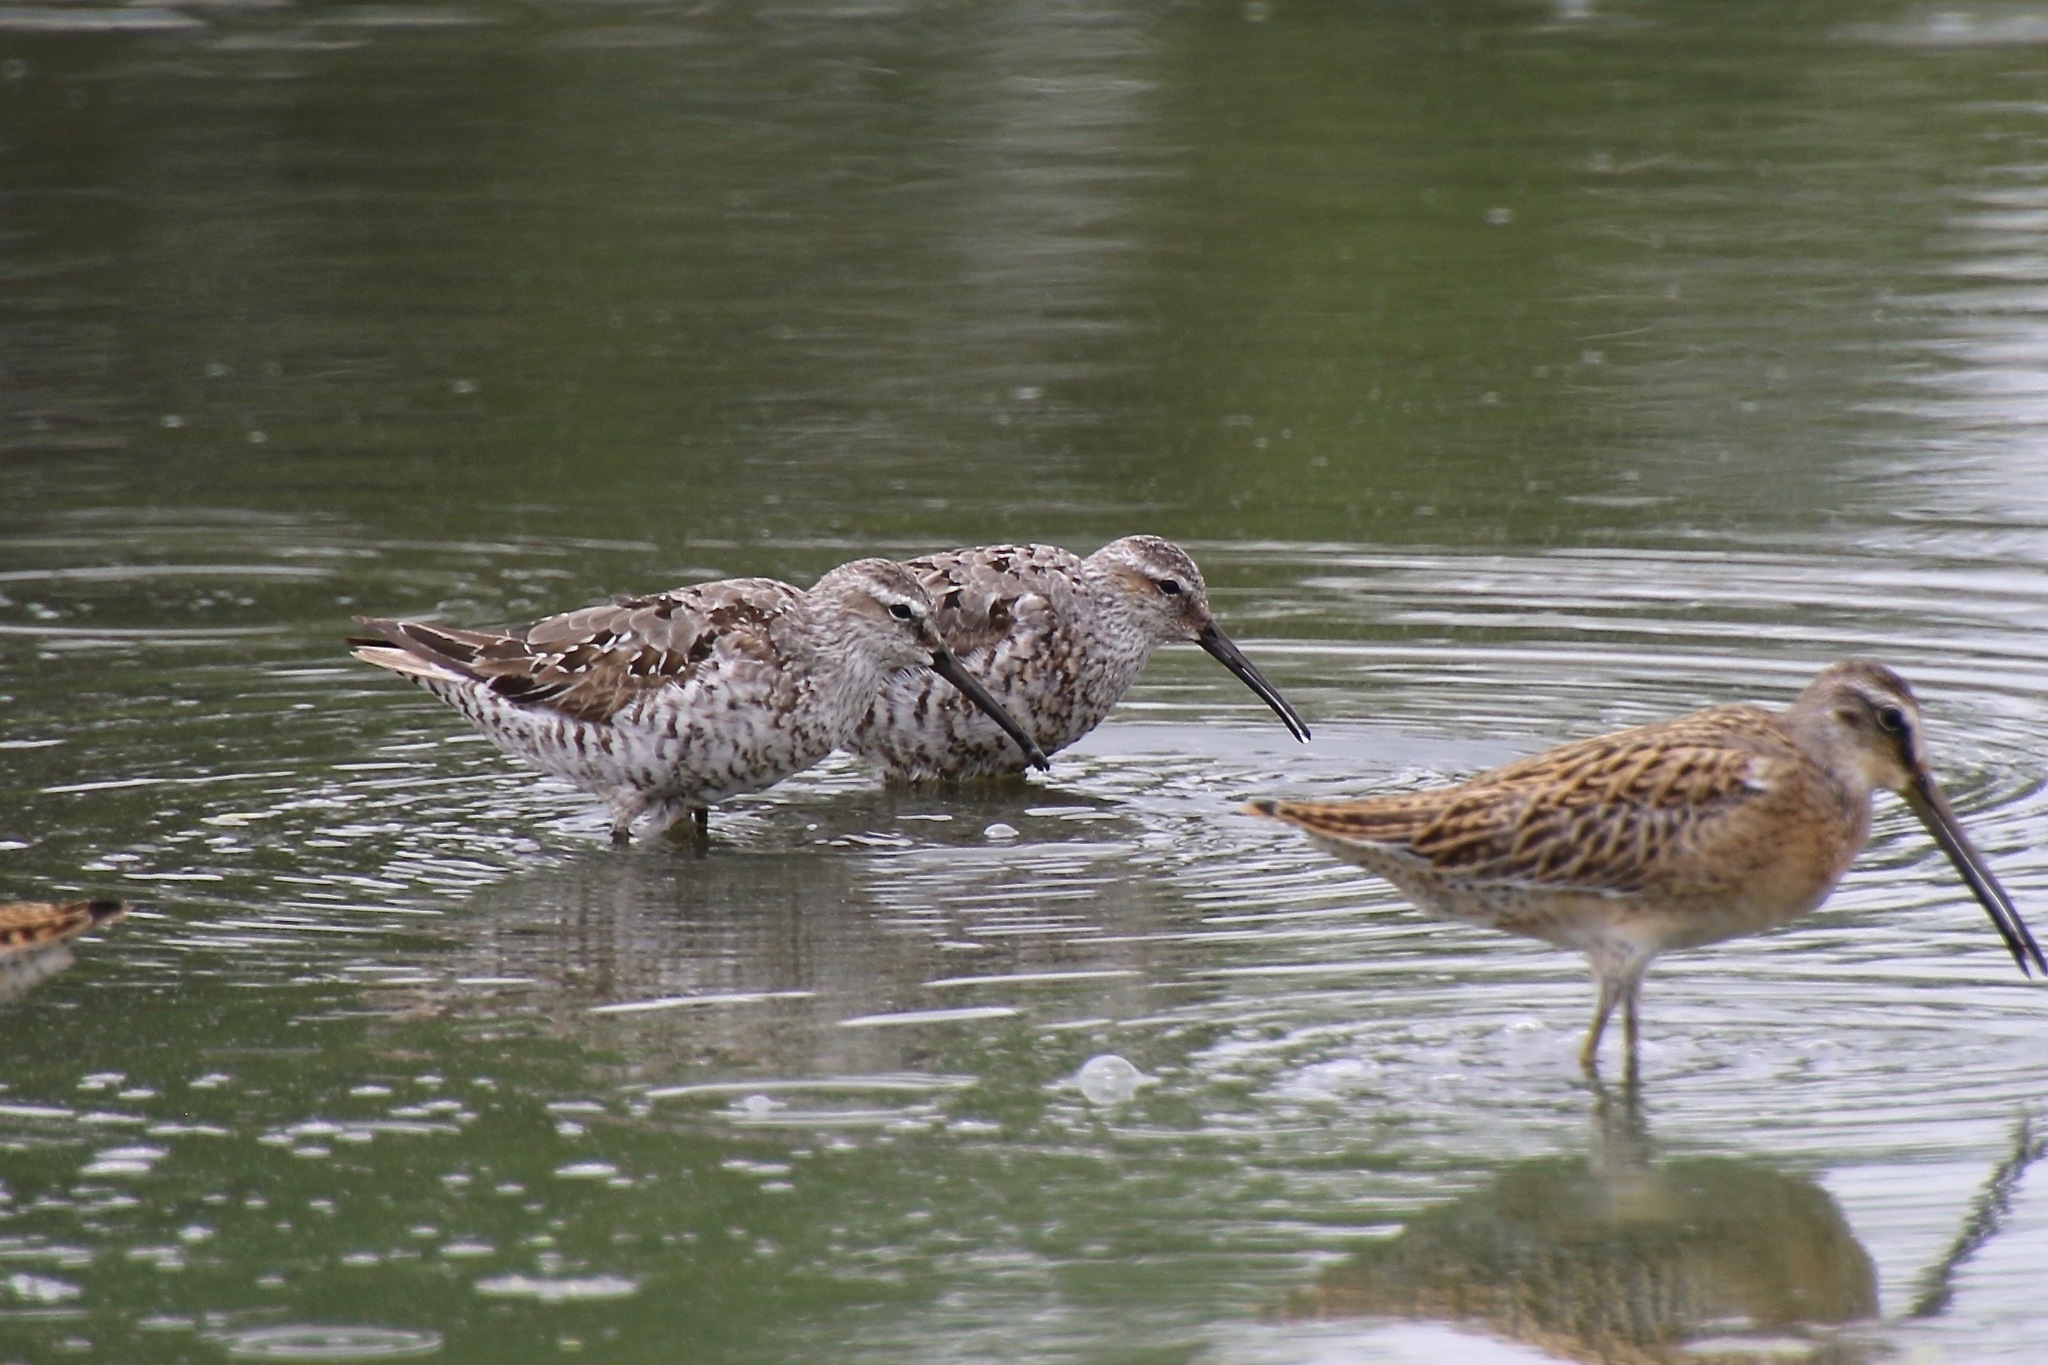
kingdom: Animalia
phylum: Chordata
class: Aves
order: Charadriiformes
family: Scolopacidae
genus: Calidris
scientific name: Calidris himantopus
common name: Stilt sandpiper
